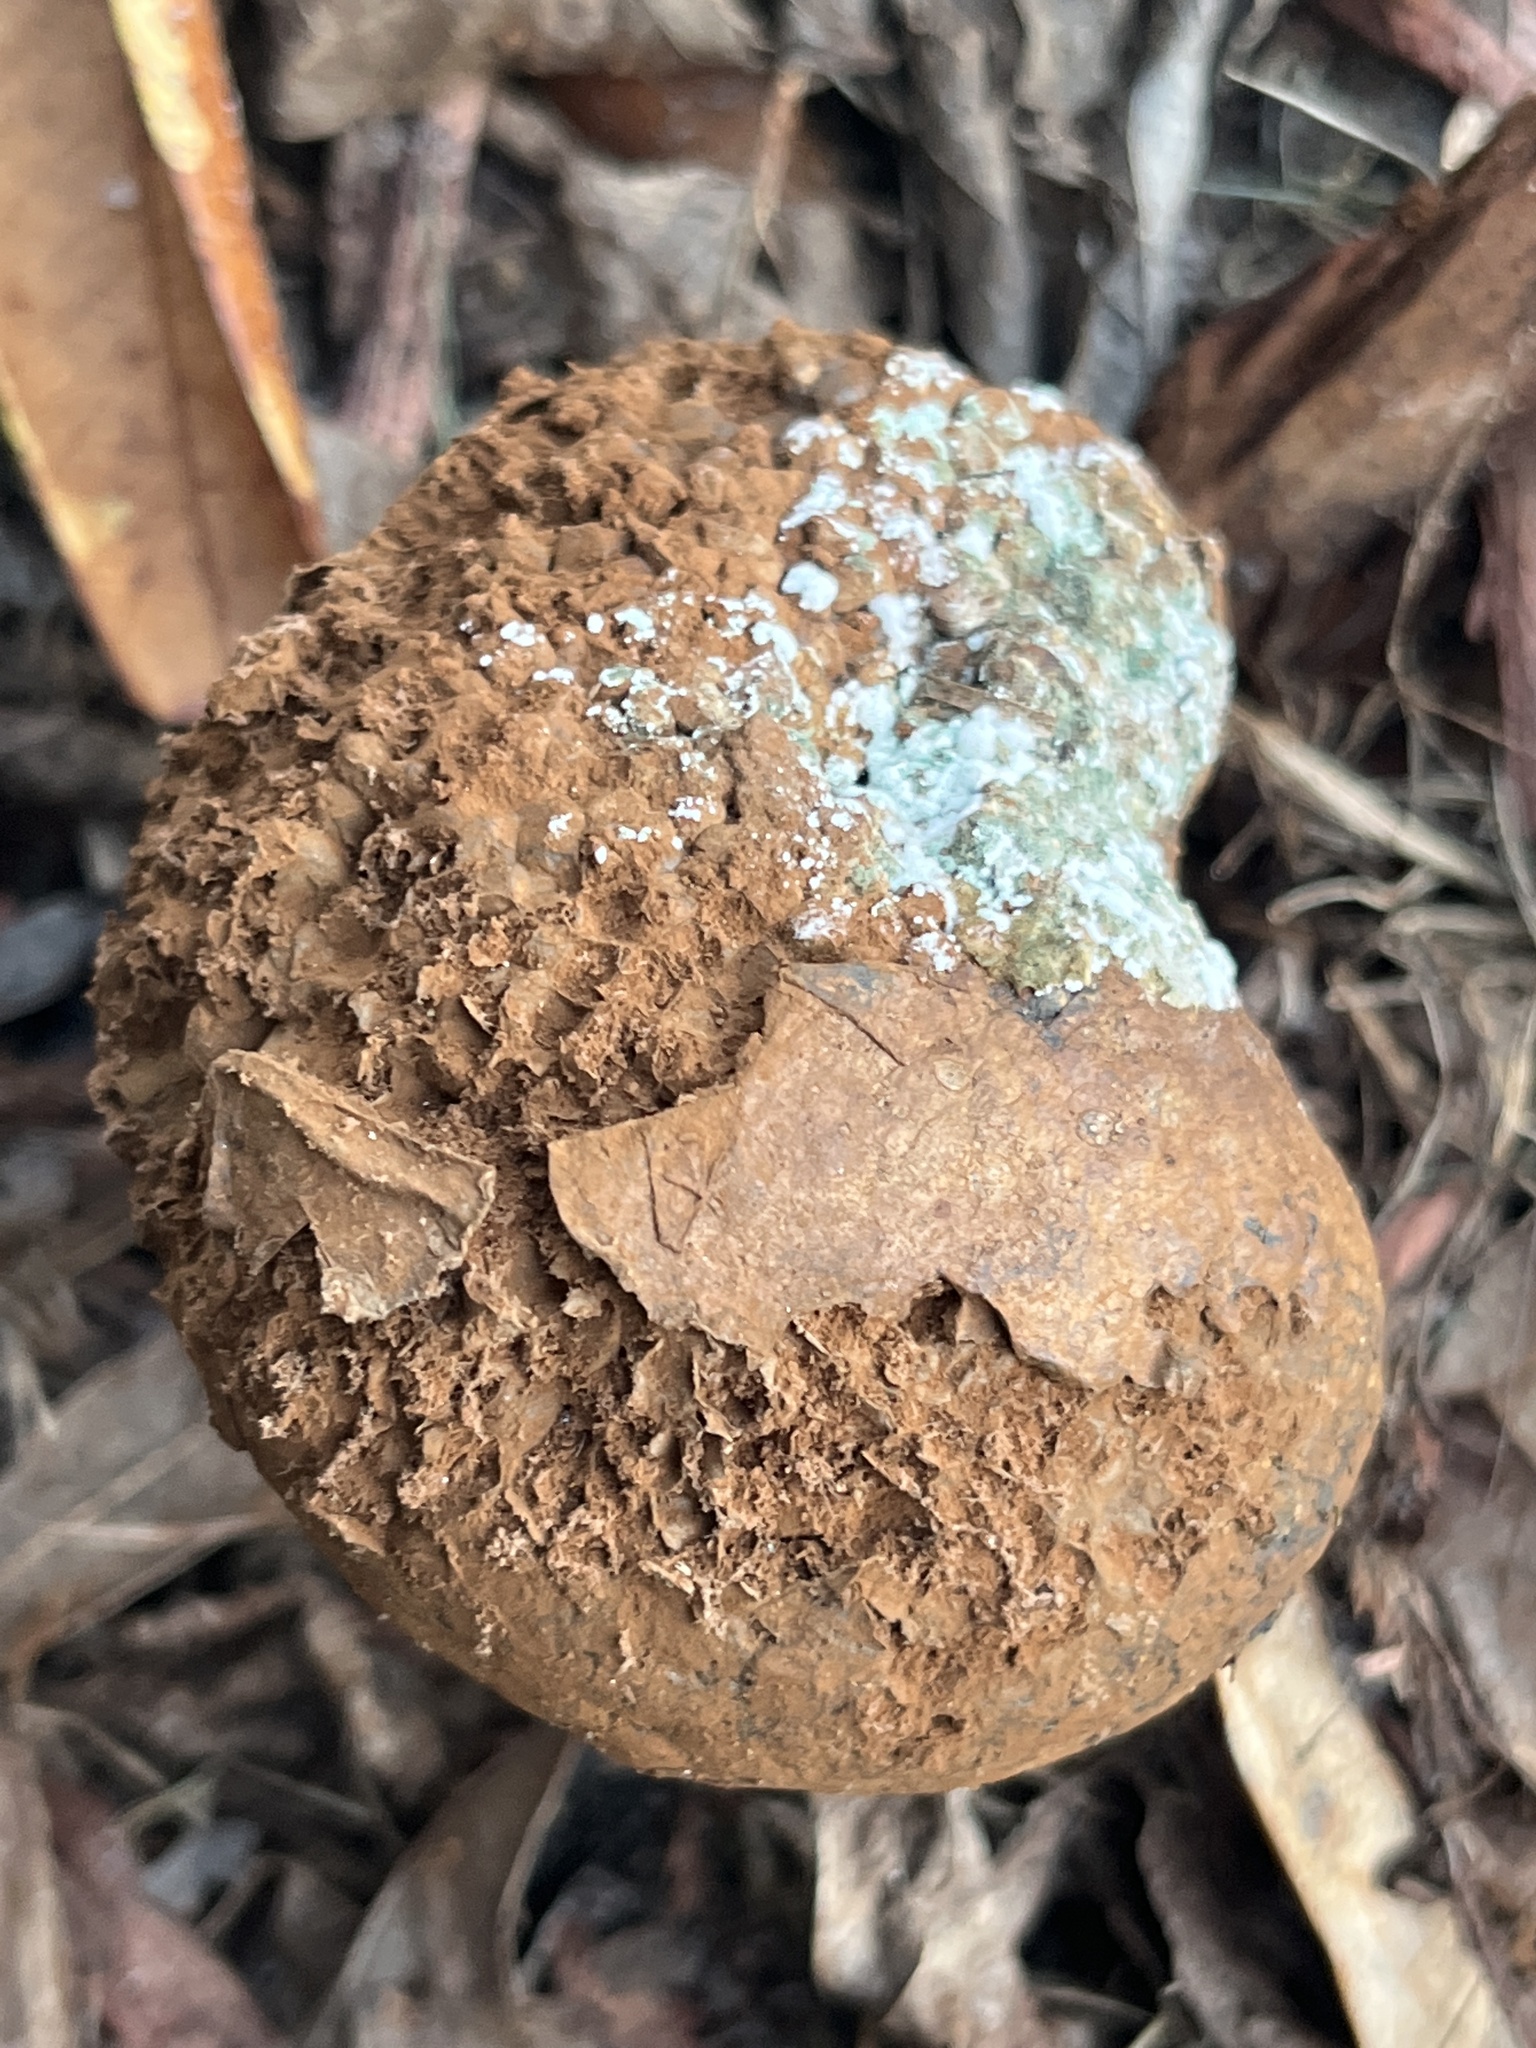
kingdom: Fungi
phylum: Basidiomycota
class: Agaricomycetes
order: Boletales
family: Sclerodermataceae
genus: Pisolithus
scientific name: Pisolithus arenarius
